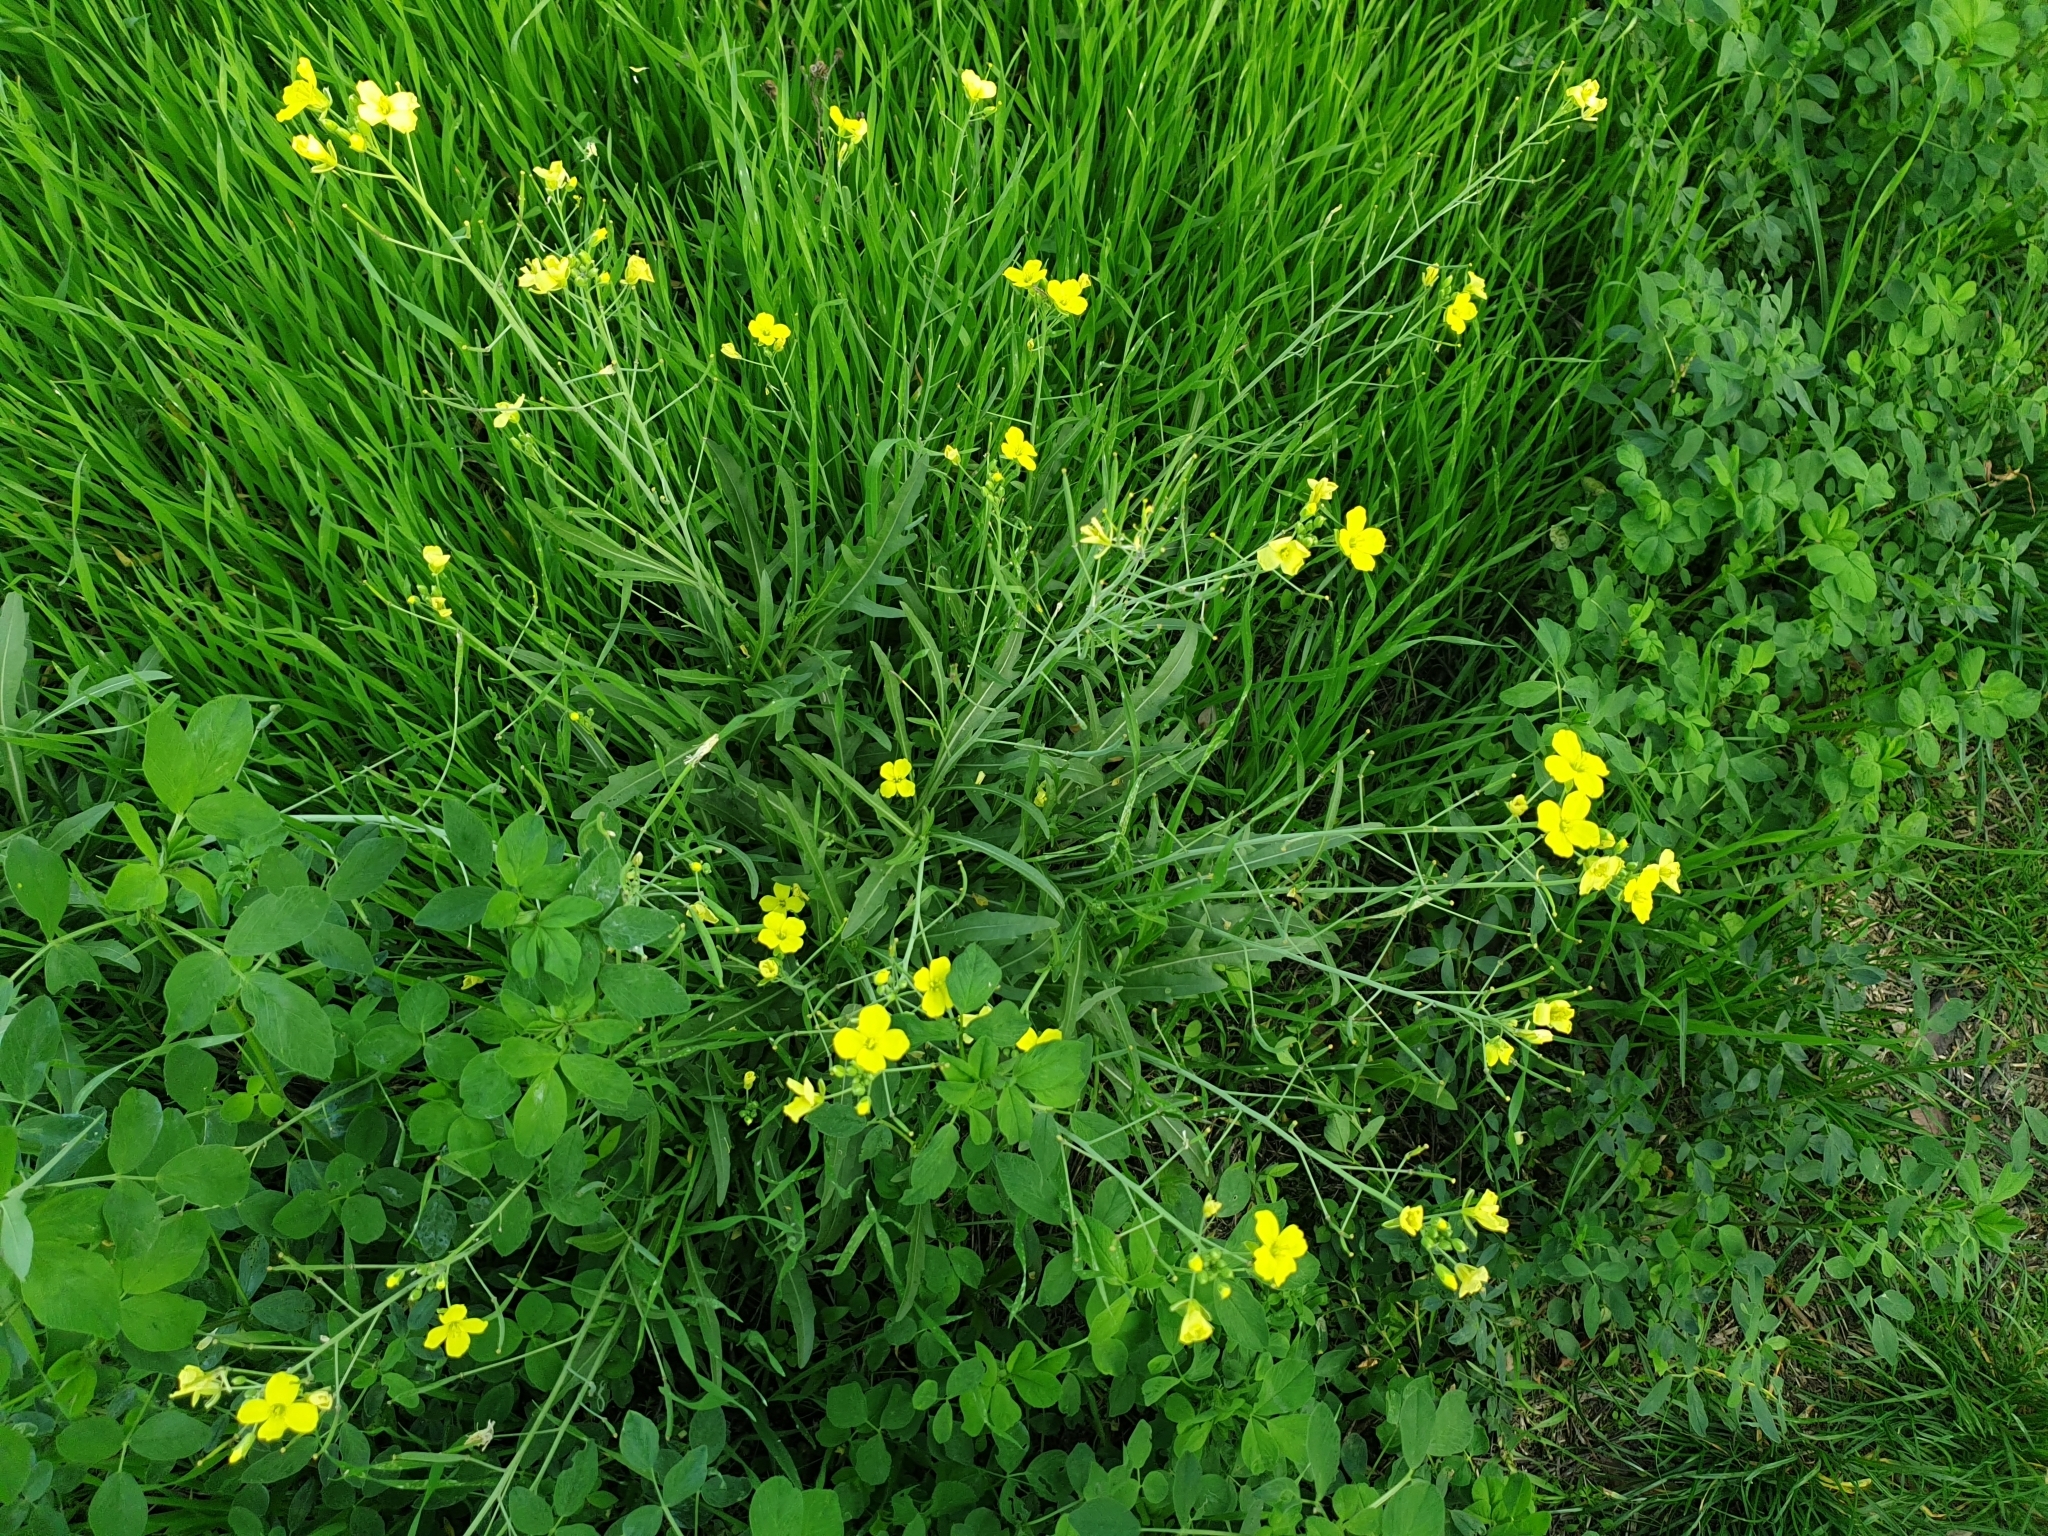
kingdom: Plantae
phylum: Tracheophyta
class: Magnoliopsida
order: Brassicales
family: Brassicaceae
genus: Diplotaxis
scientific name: Diplotaxis tenuifolia
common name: Perennial wall-rocket
